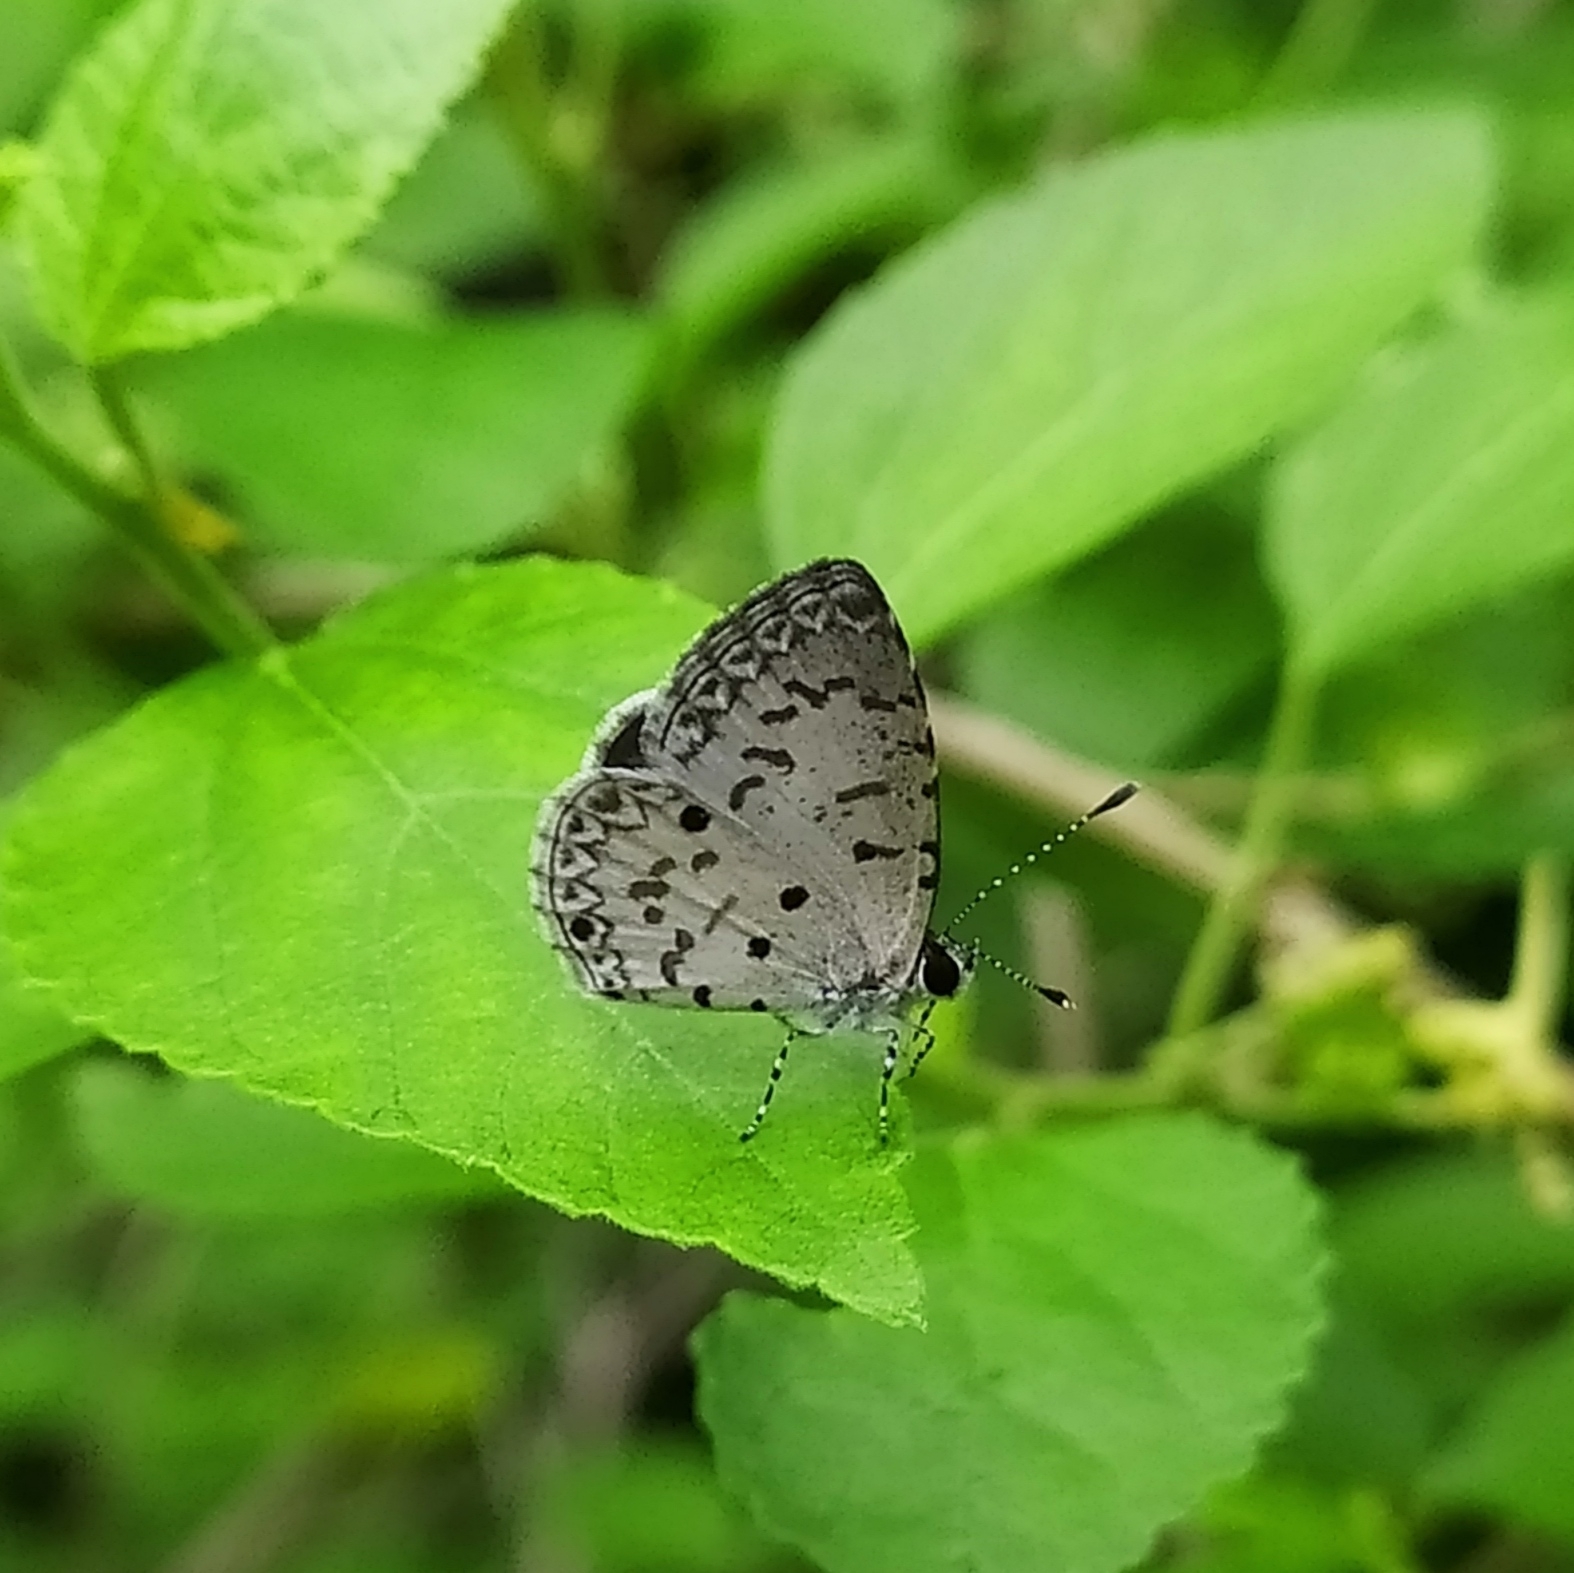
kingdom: Animalia
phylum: Arthropoda
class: Insecta
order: Lepidoptera
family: Lycaenidae
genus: Megisba
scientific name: Megisba malaya
